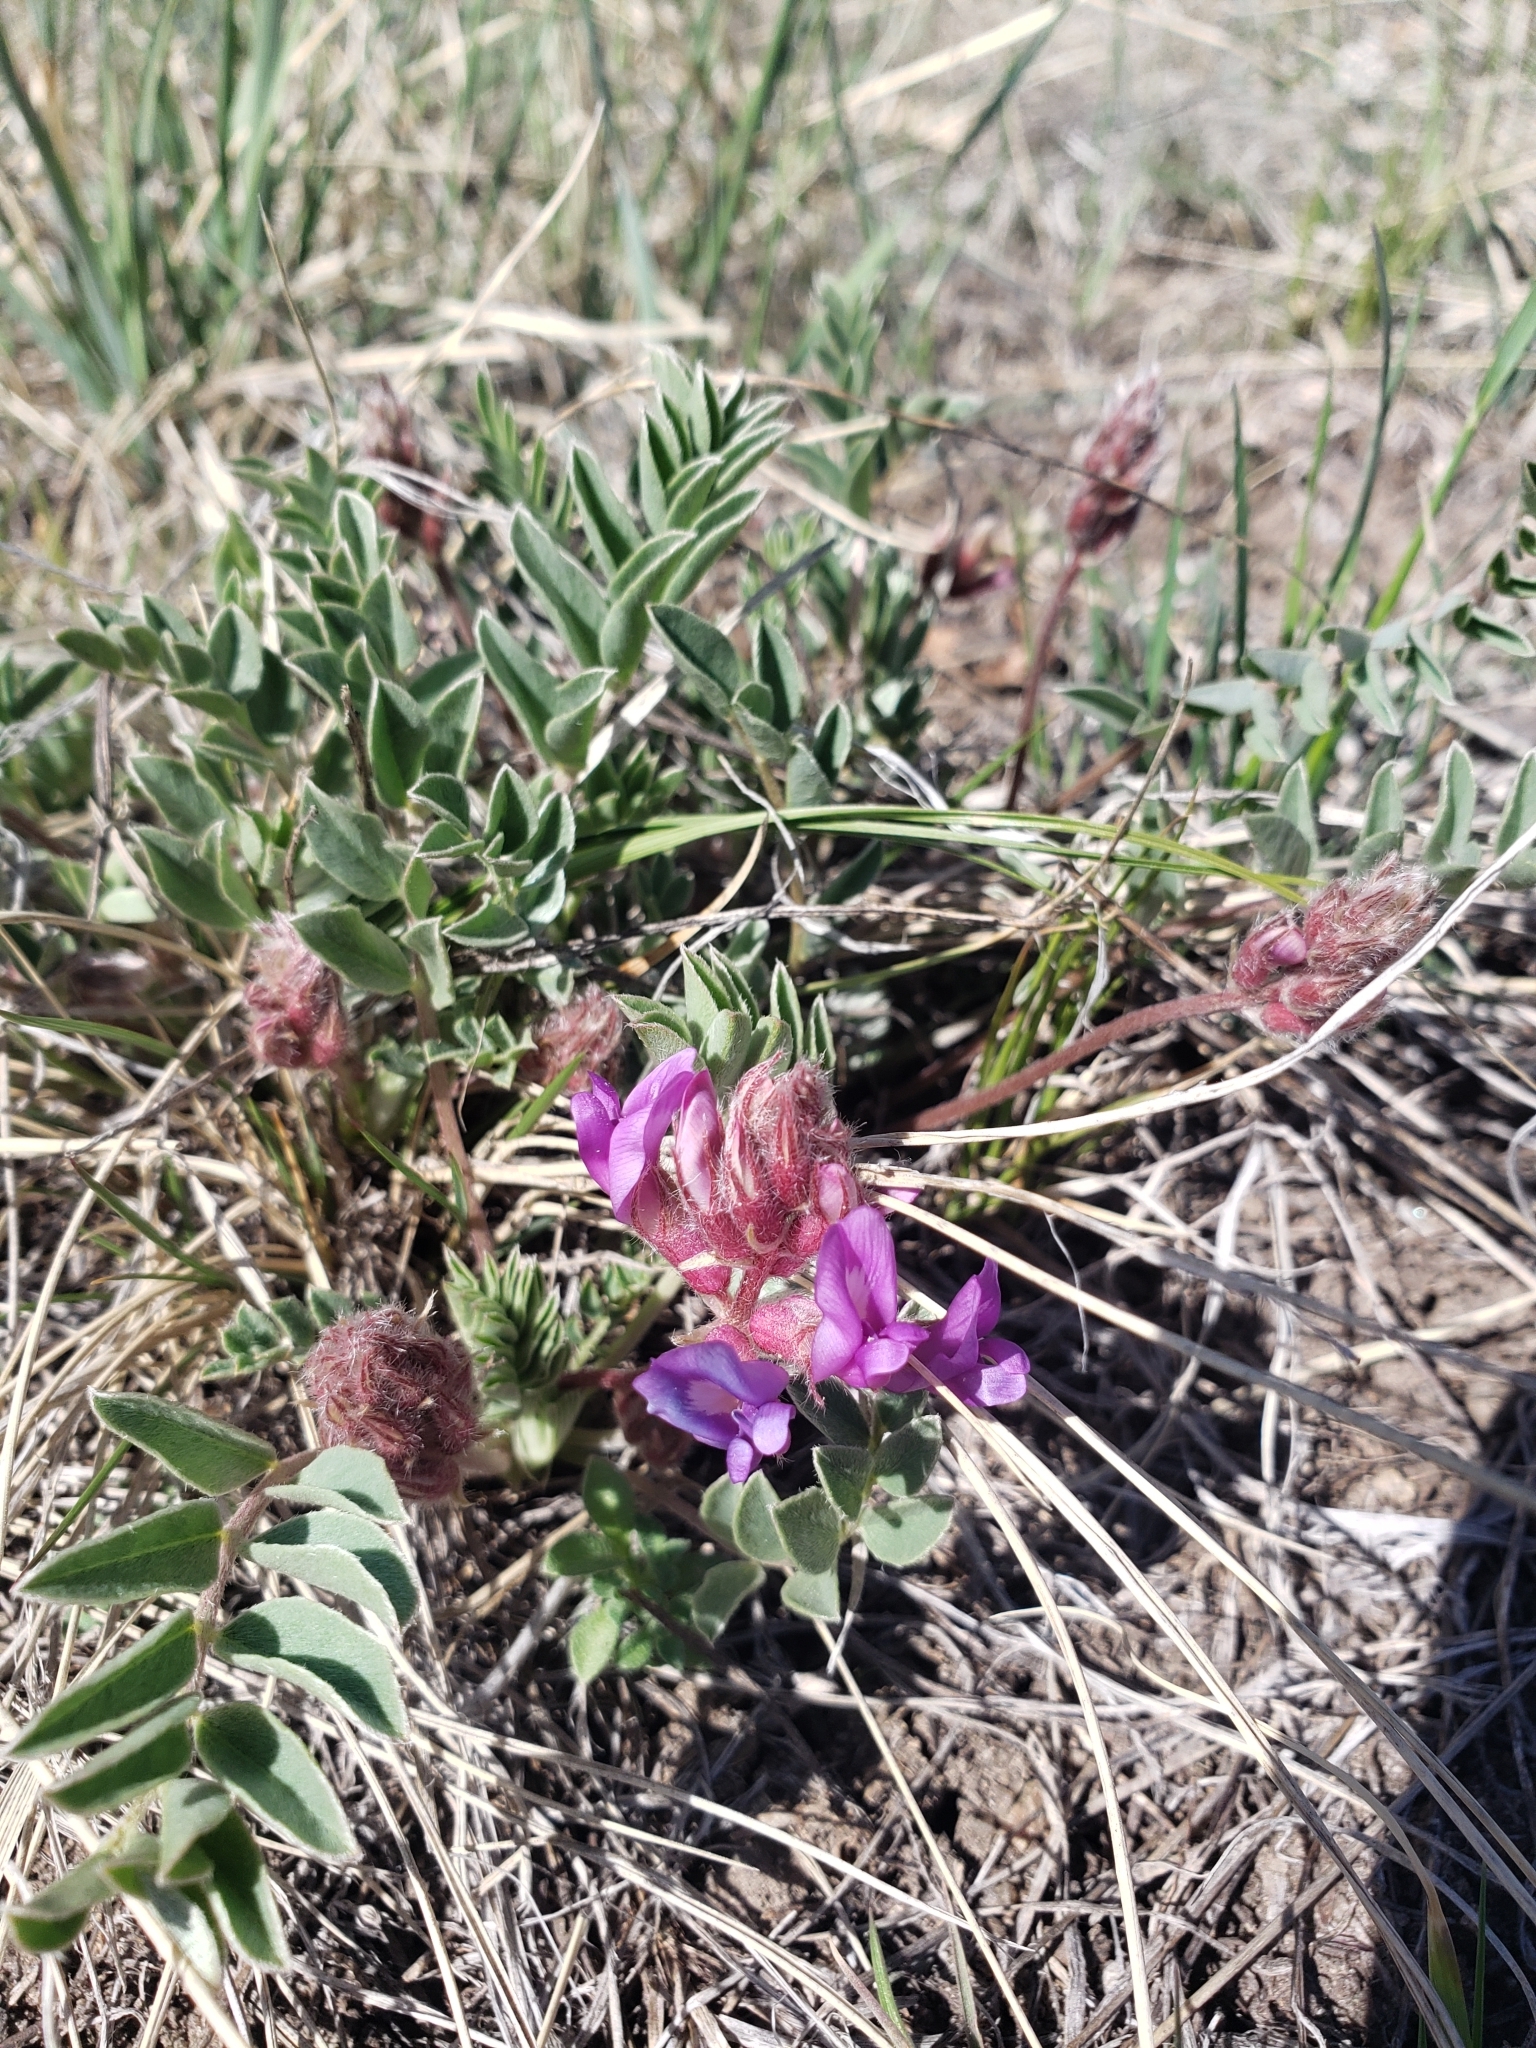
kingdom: Plantae
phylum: Tracheophyta
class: Magnoliopsida
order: Fabales
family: Fabaceae
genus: Astragalus
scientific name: Astragalus shortianus
